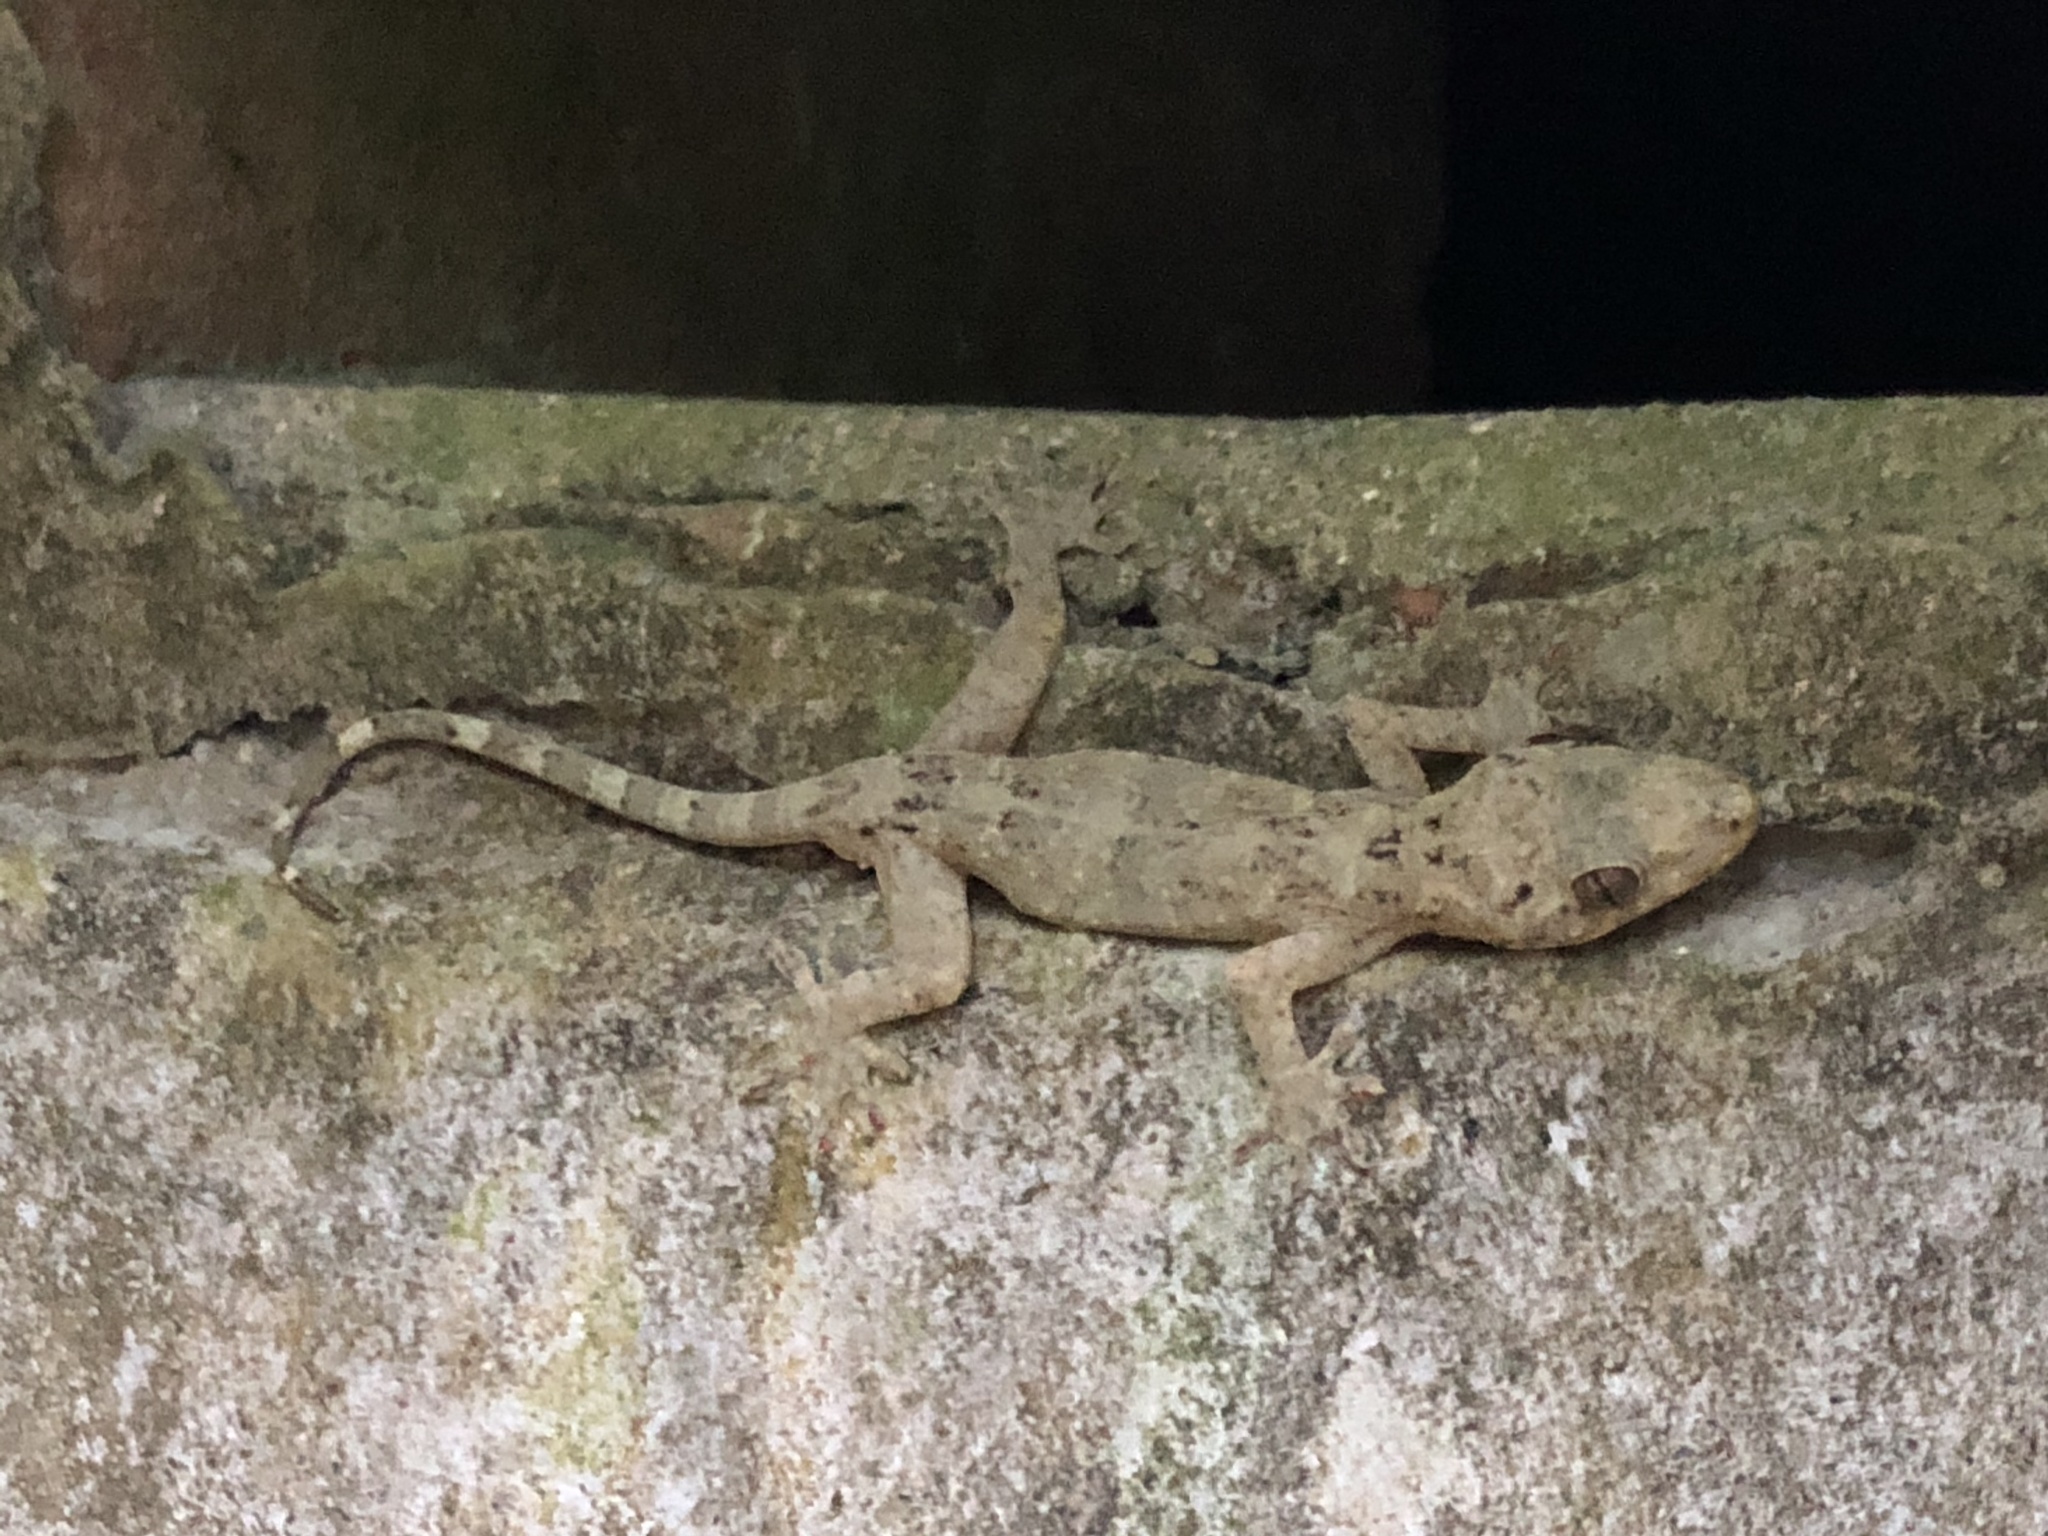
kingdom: Animalia
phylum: Chordata
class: Squamata
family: Gekkonidae
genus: Gekko
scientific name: Gekko chinensis
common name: Gray's chinese gecko
